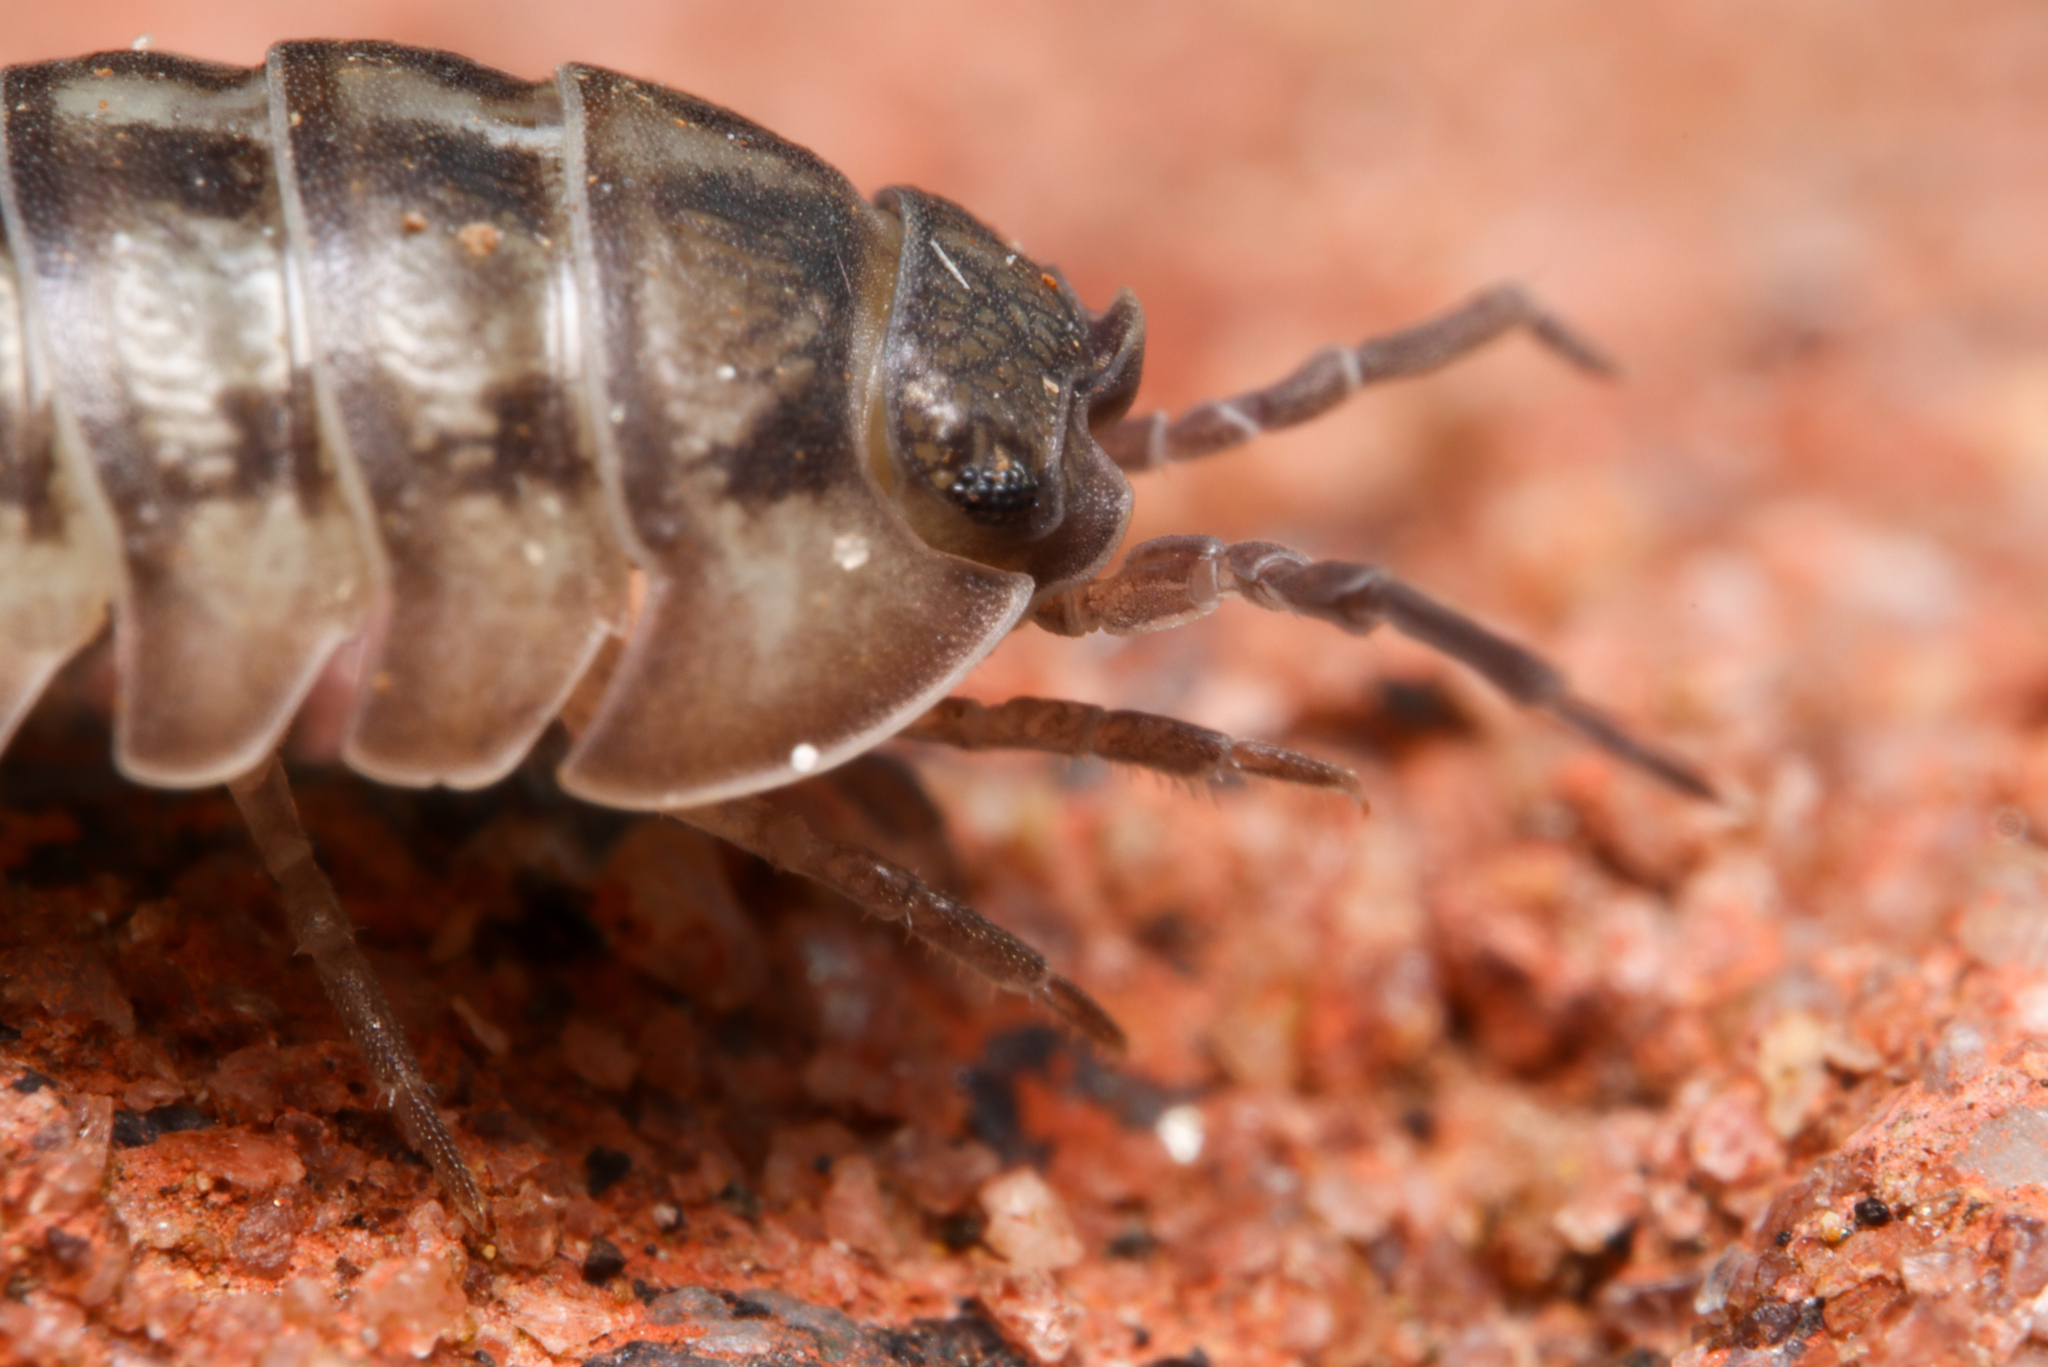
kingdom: Animalia
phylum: Arthropoda
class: Malacostraca
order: Isopoda
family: Armadillidiidae
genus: Armadillidium
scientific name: Armadillidium nasatum
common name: Isopod
